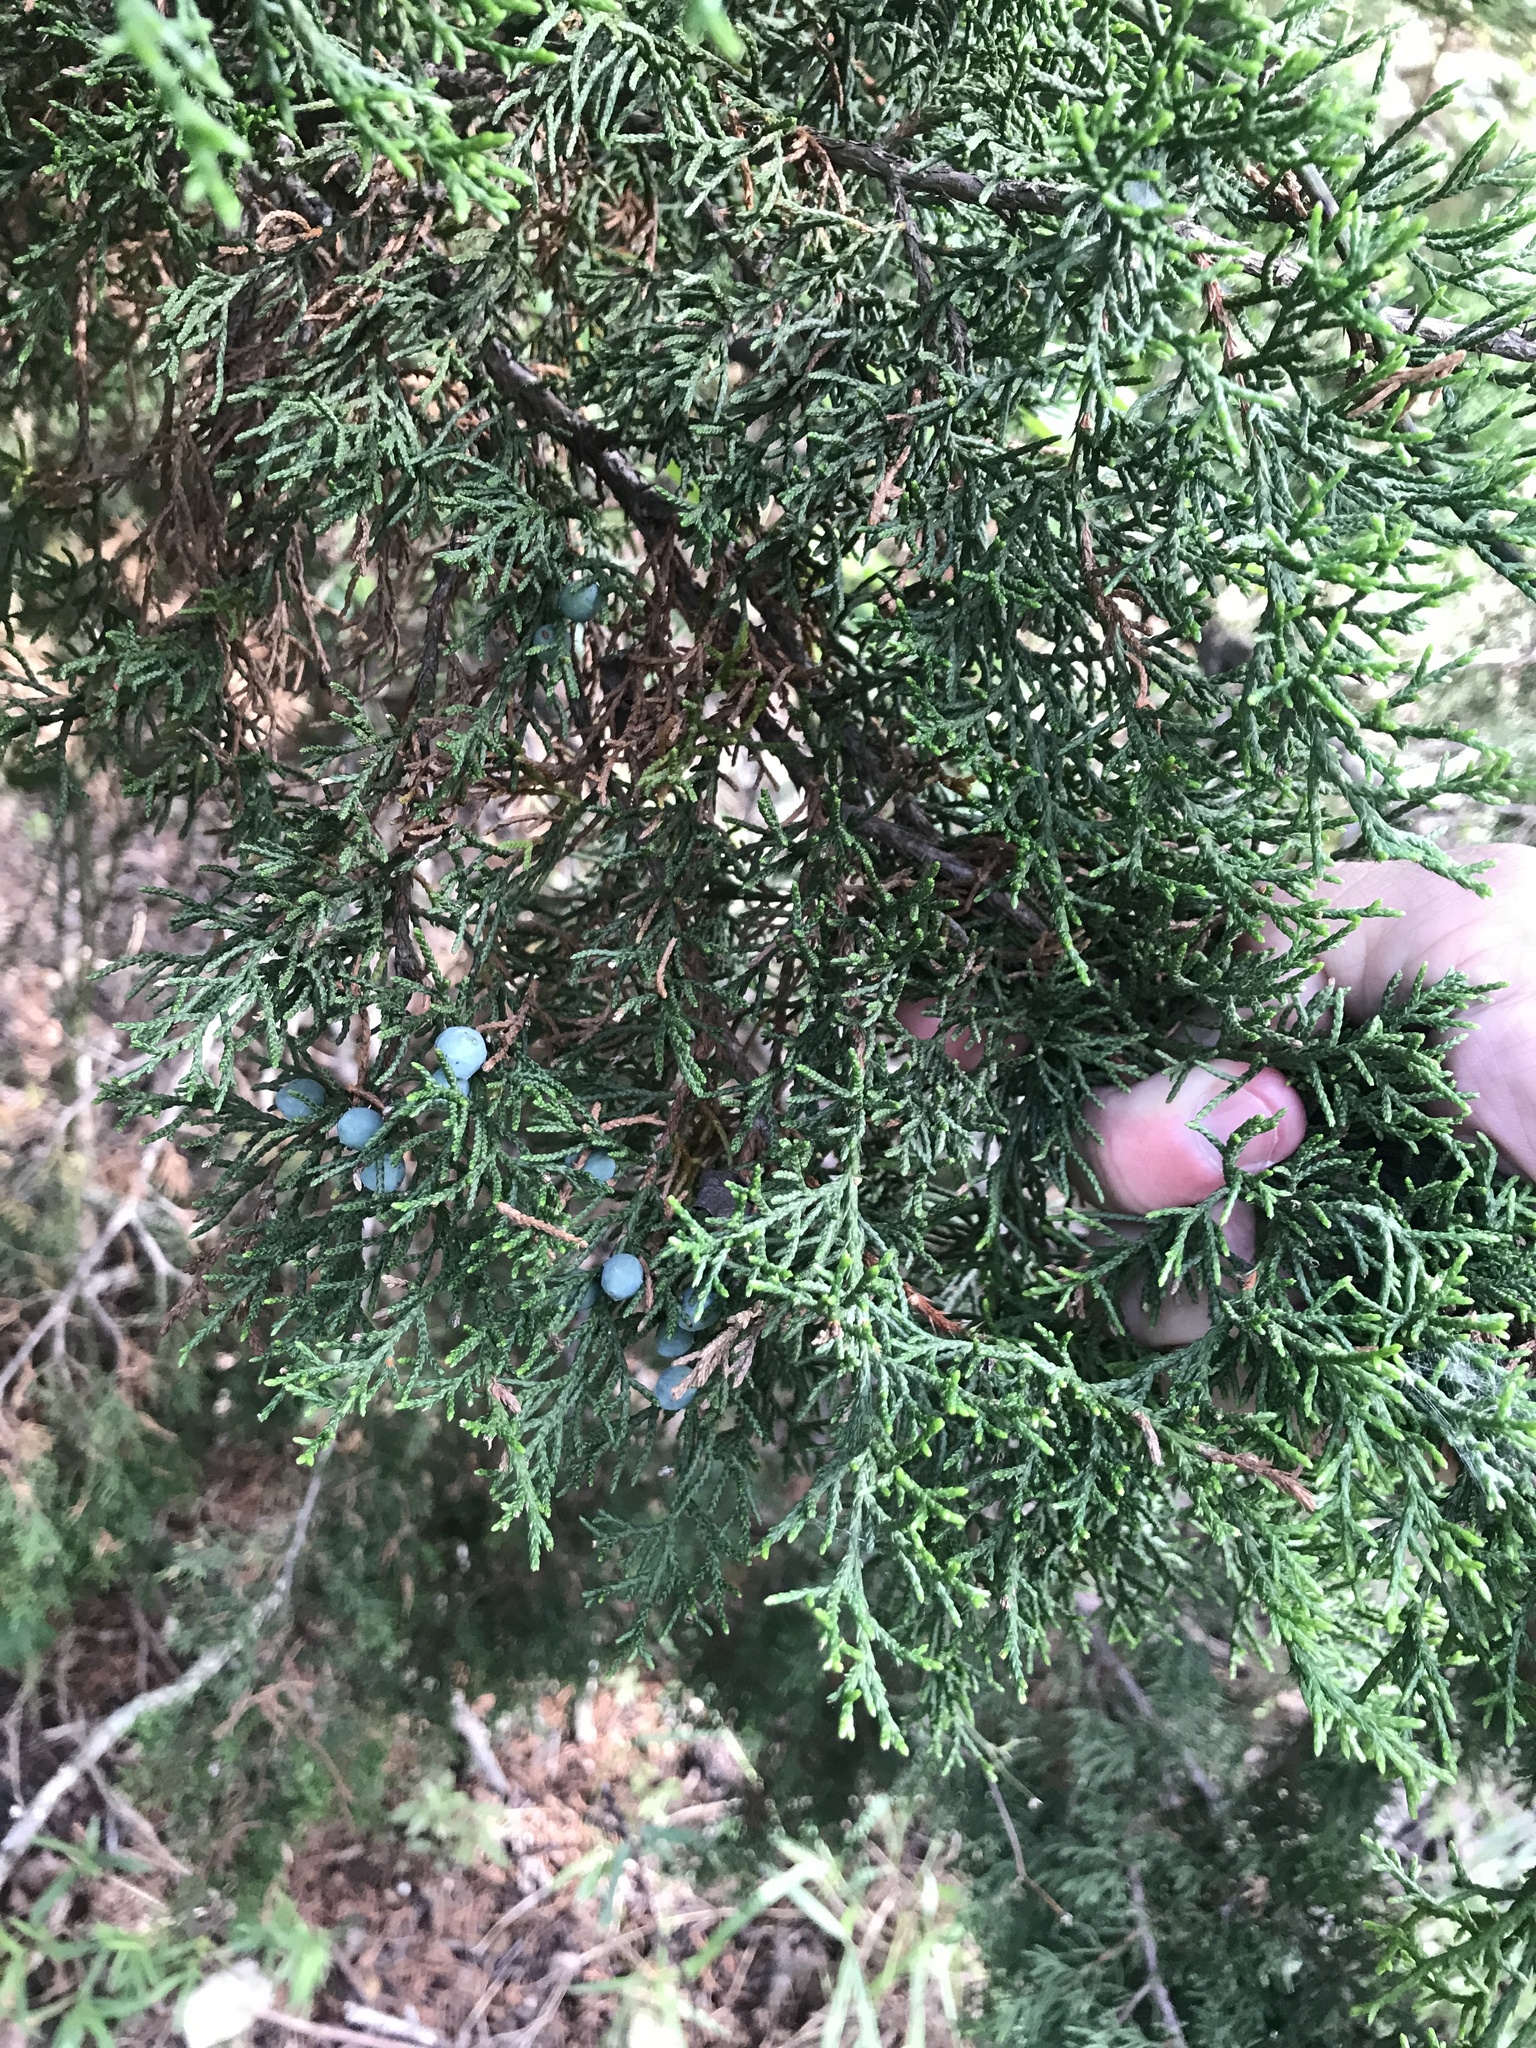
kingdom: Plantae
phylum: Tracheophyta
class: Pinopsida
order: Pinales
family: Cupressaceae
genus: Juniperus
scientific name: Juniperus ashei
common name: Mexican juniper
